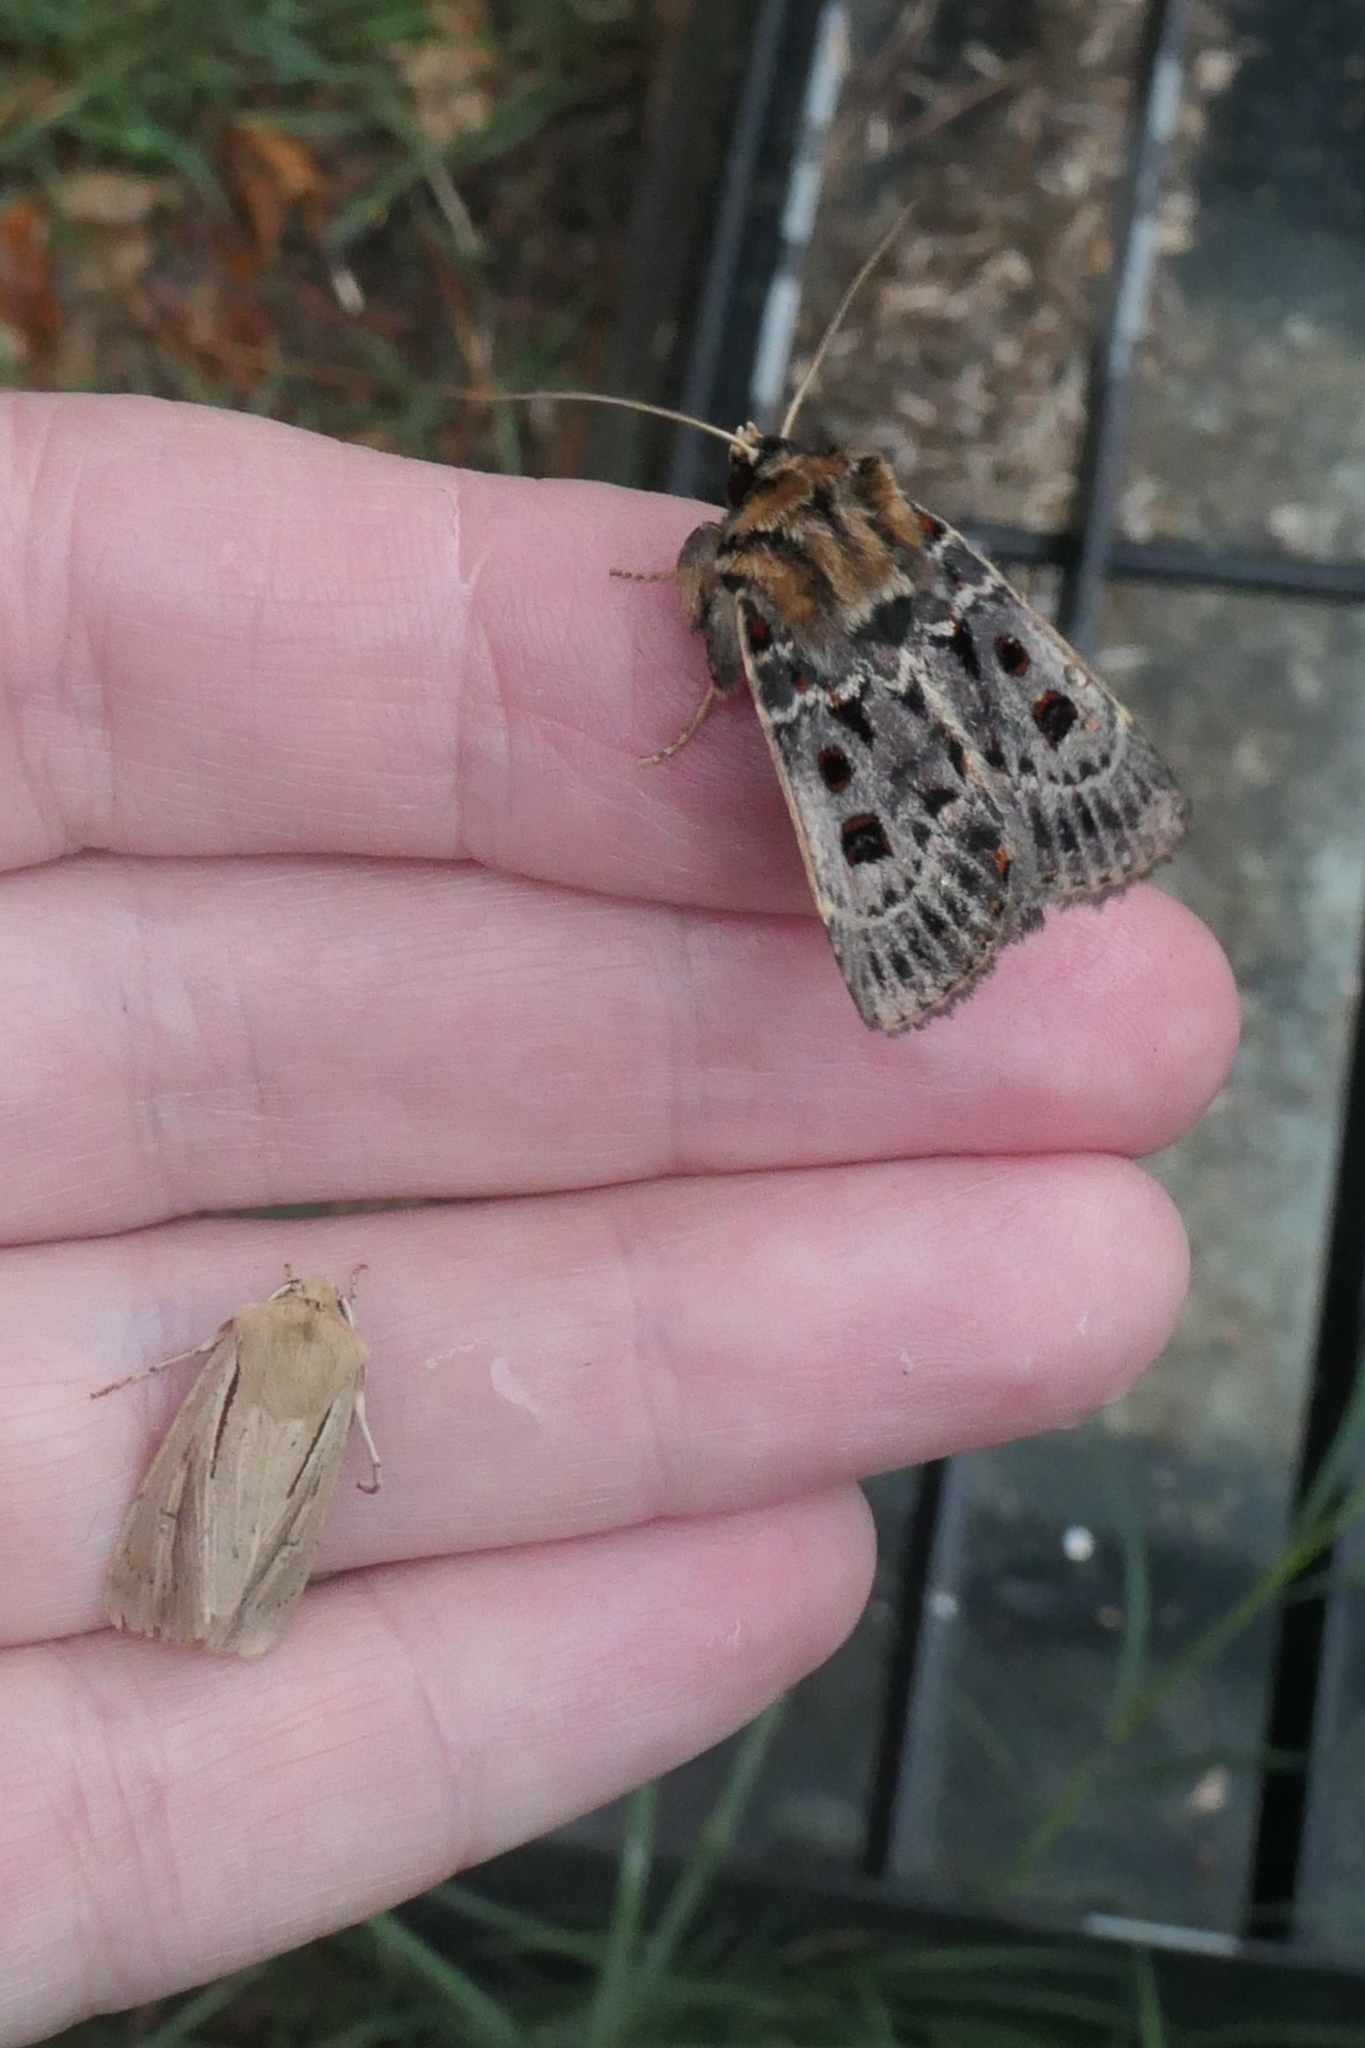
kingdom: Animalia
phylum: Arthropoda
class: Insecta
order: Lepidoptera
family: Noctuidae
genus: Proteuxoa
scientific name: Proteuxoa sanguinipuncta
